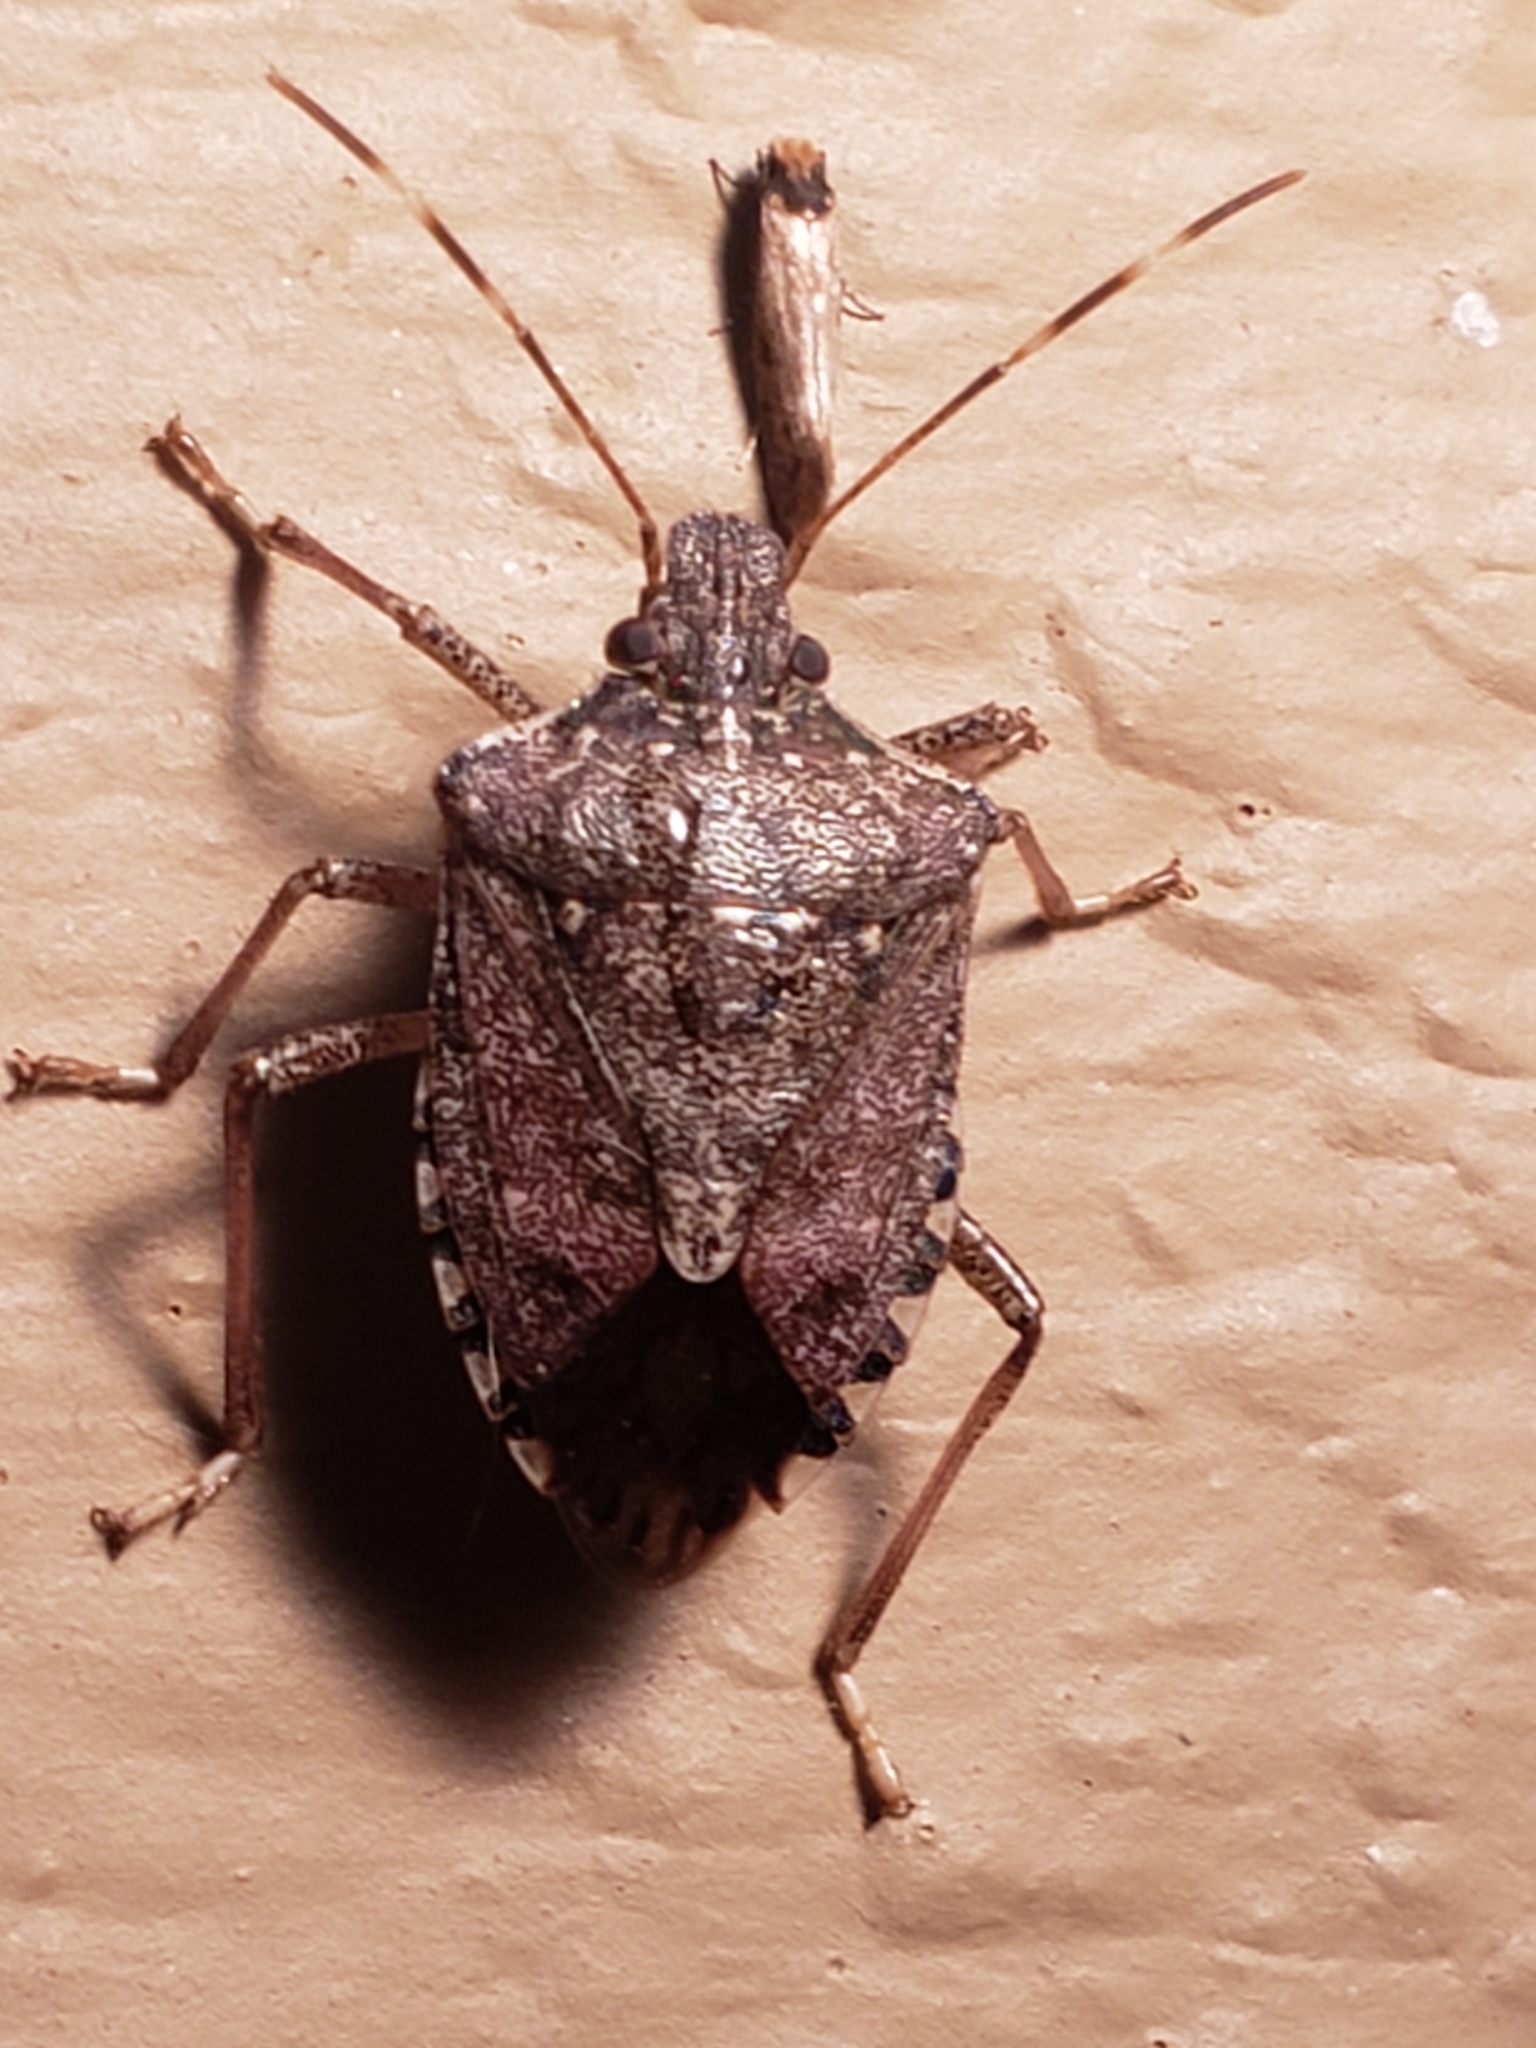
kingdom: Animalia
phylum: Arthropoda
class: Insecta
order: Hemiptera
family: Pentatomidae
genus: Halyomorpha
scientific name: Halyomorpha halys
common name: Brown marmorated stink bug
